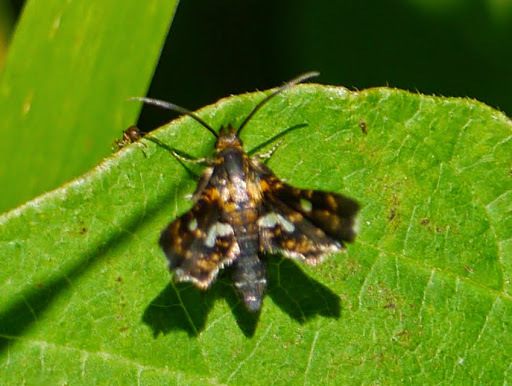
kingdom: Animalia
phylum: Arthropoda
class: Insecta
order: Lepidoptera
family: Thyrididae
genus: Thyris
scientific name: Thyris maculata
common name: Spotted thyris moth
